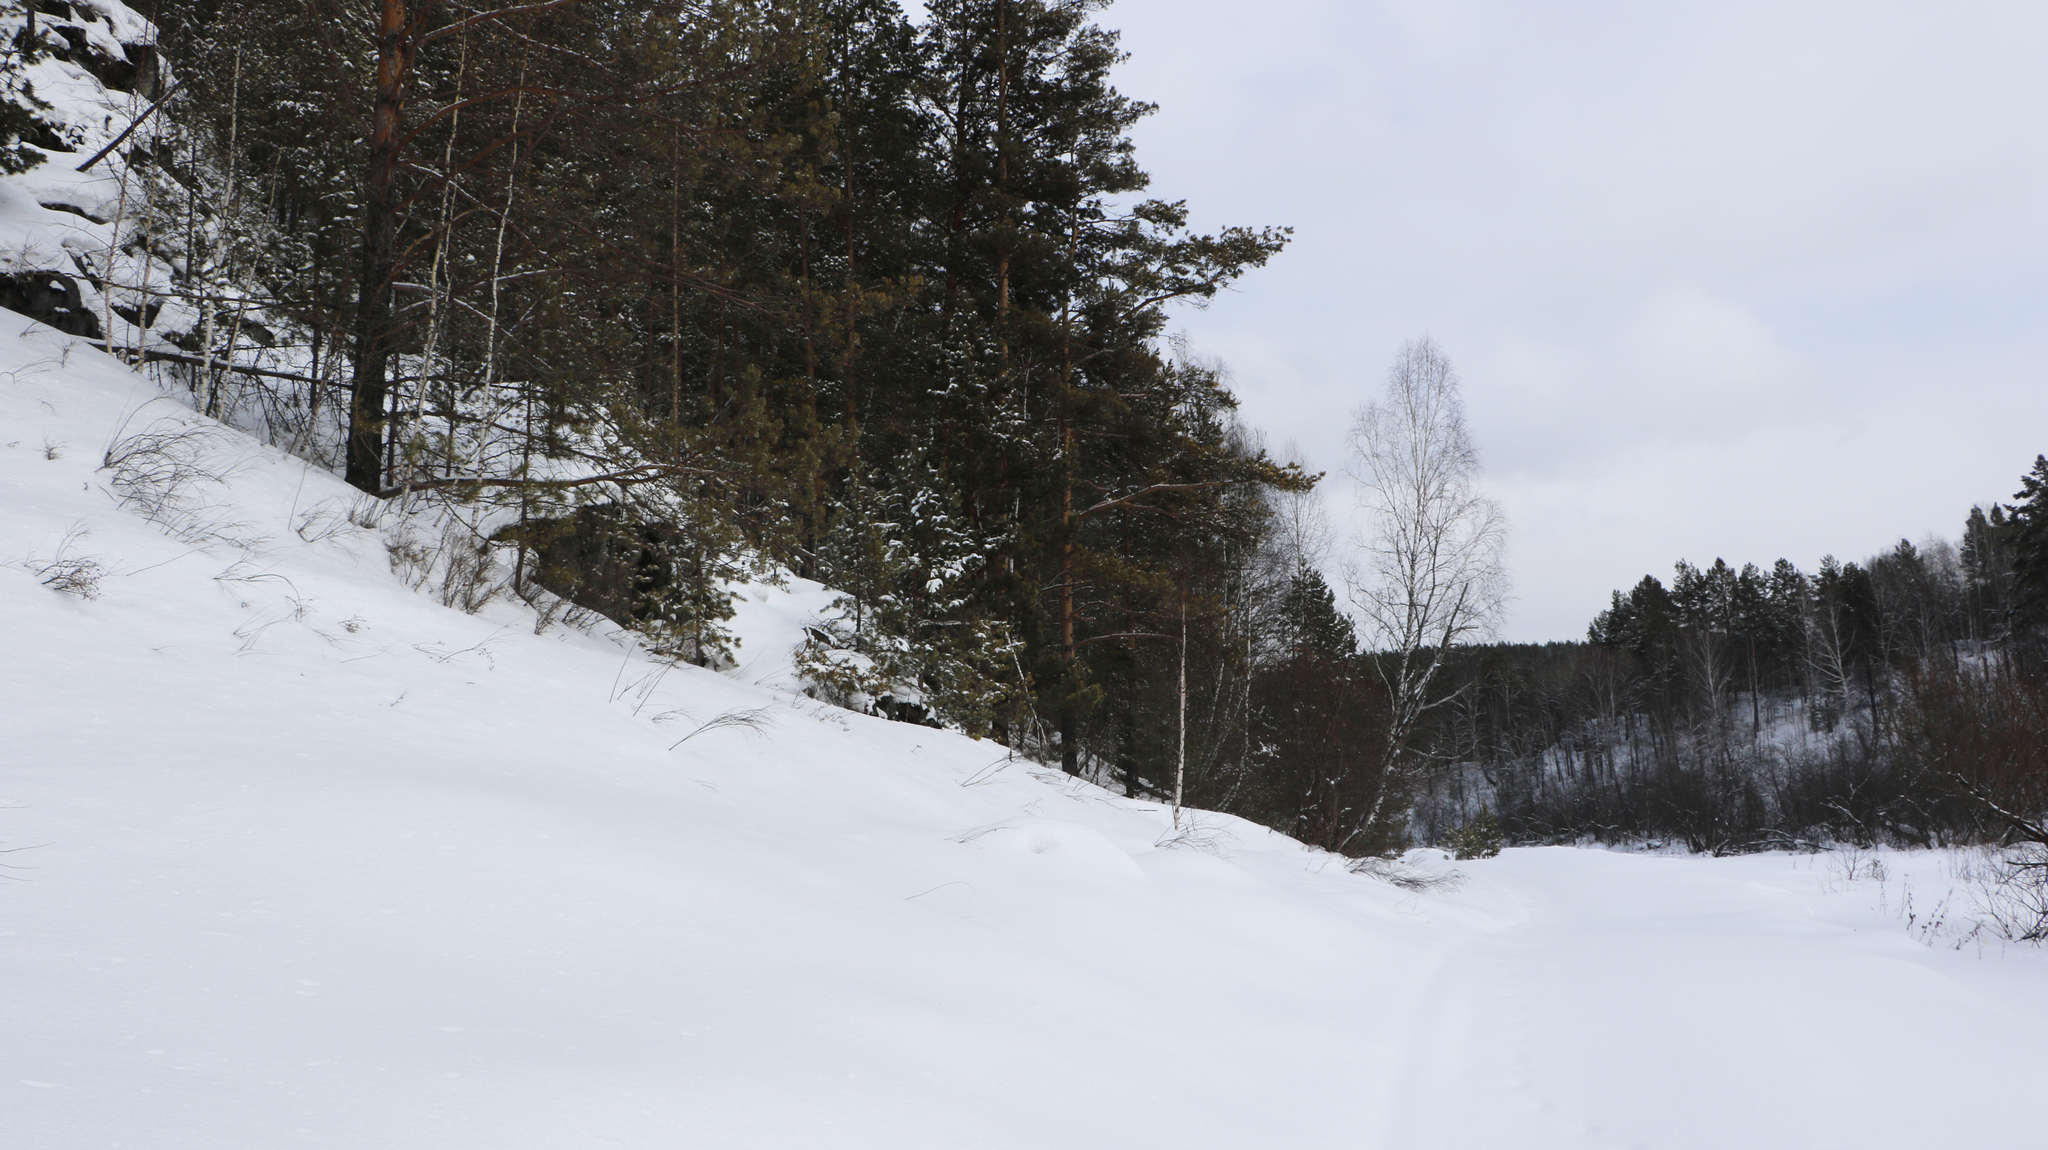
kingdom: Plantae
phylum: Tracheophyta
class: Pinopsida
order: Pinales
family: Pinaceae
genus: Pinus
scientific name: Pinus sylvestris
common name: Scots pine
